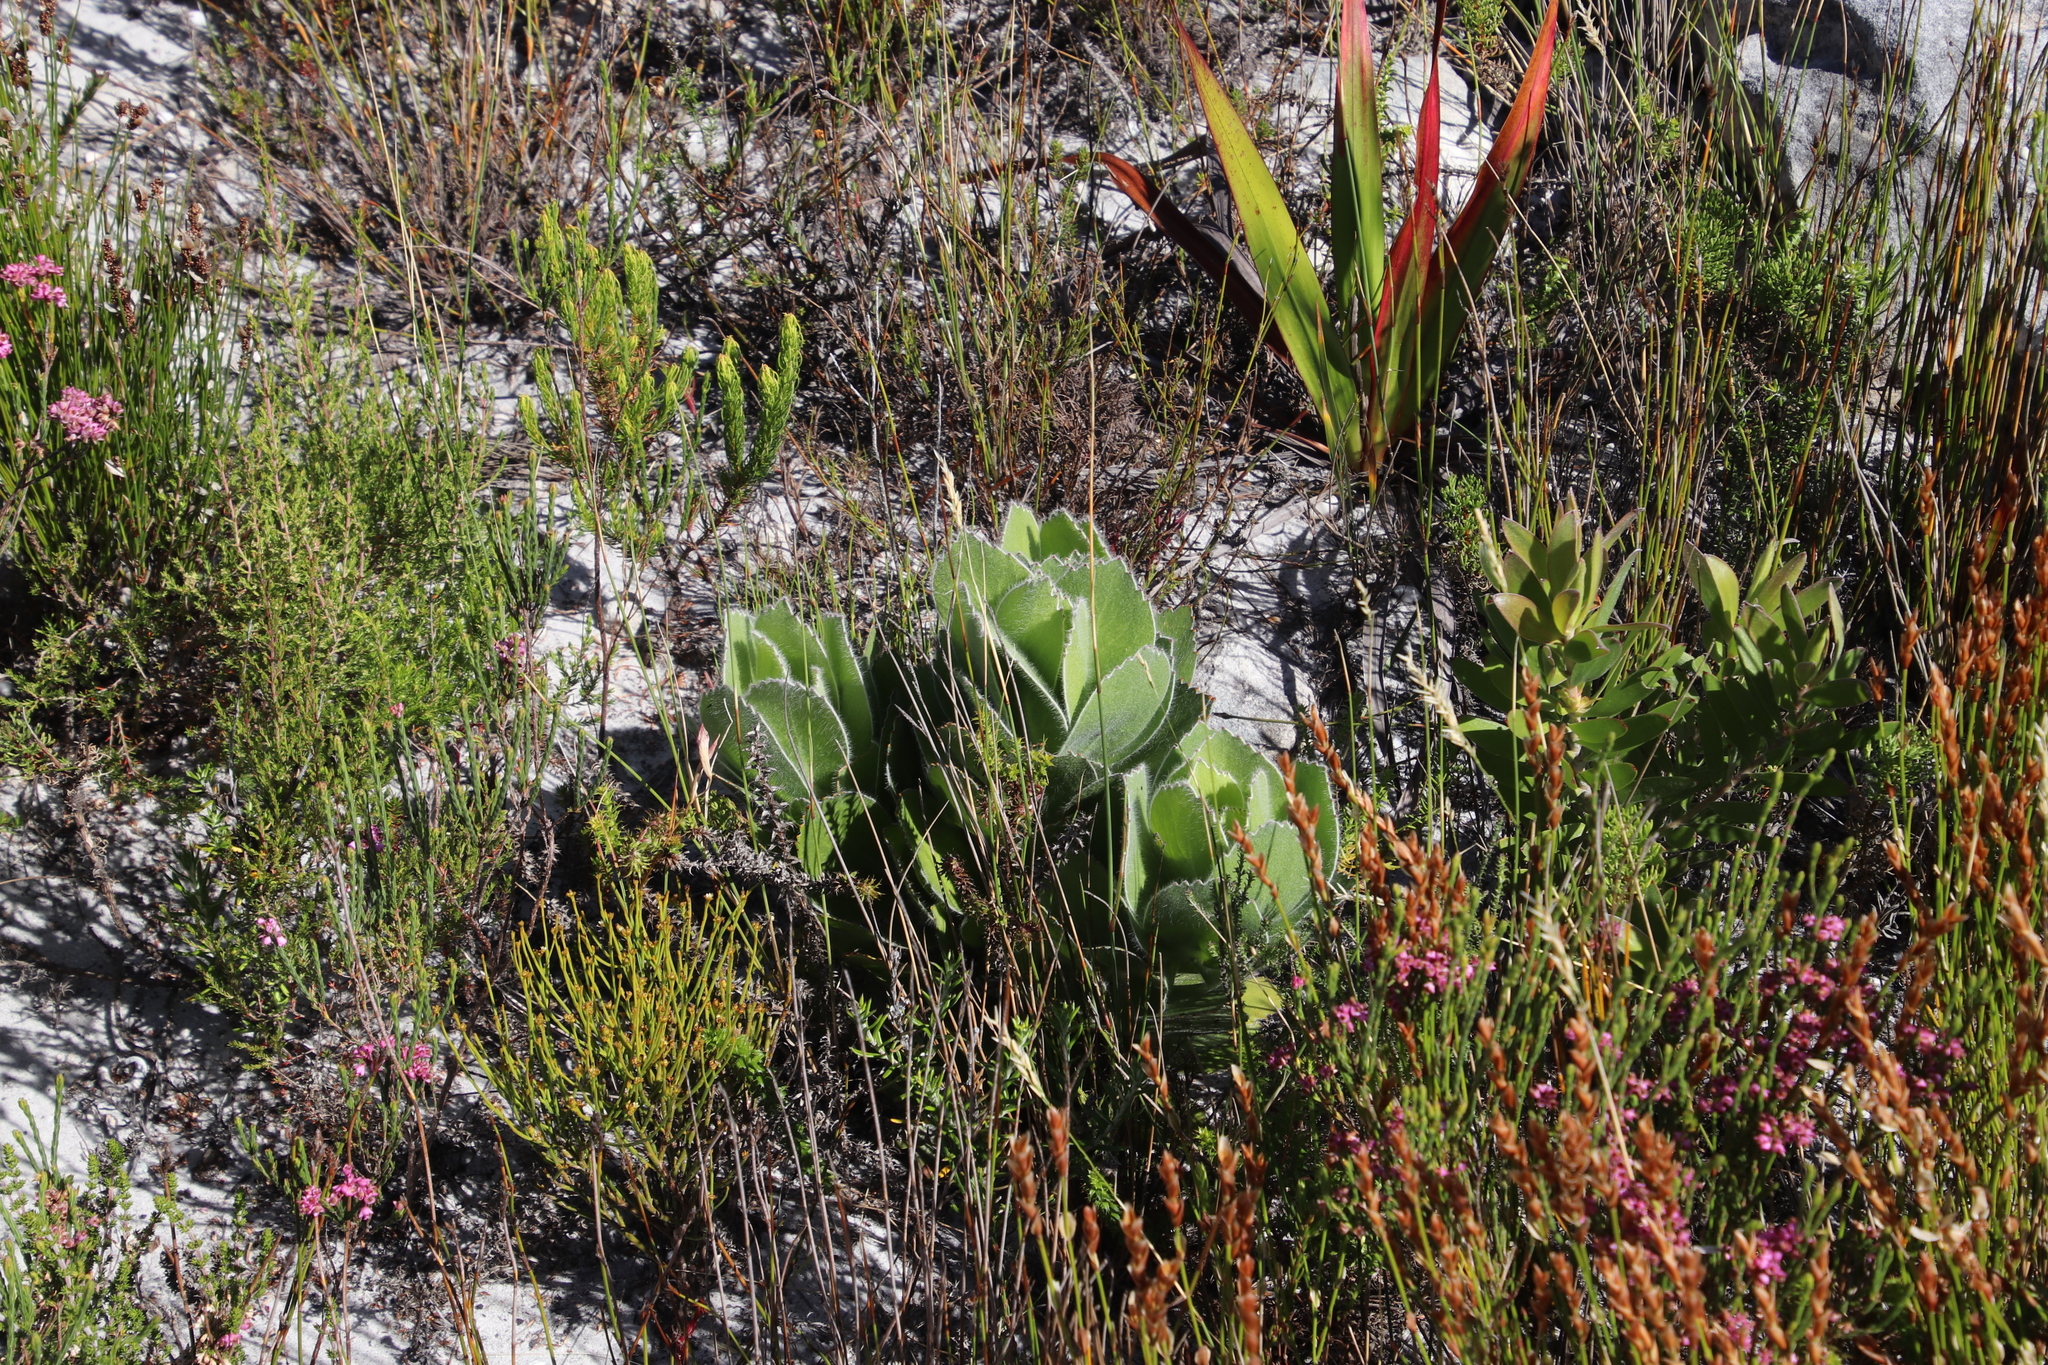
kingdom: Plantae
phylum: Tracheophyta
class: Magnoliopsida
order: Proteales
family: Proteaceae
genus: Leucospermum
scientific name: Leucospermum conocarpodendron
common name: Tree pincushion
